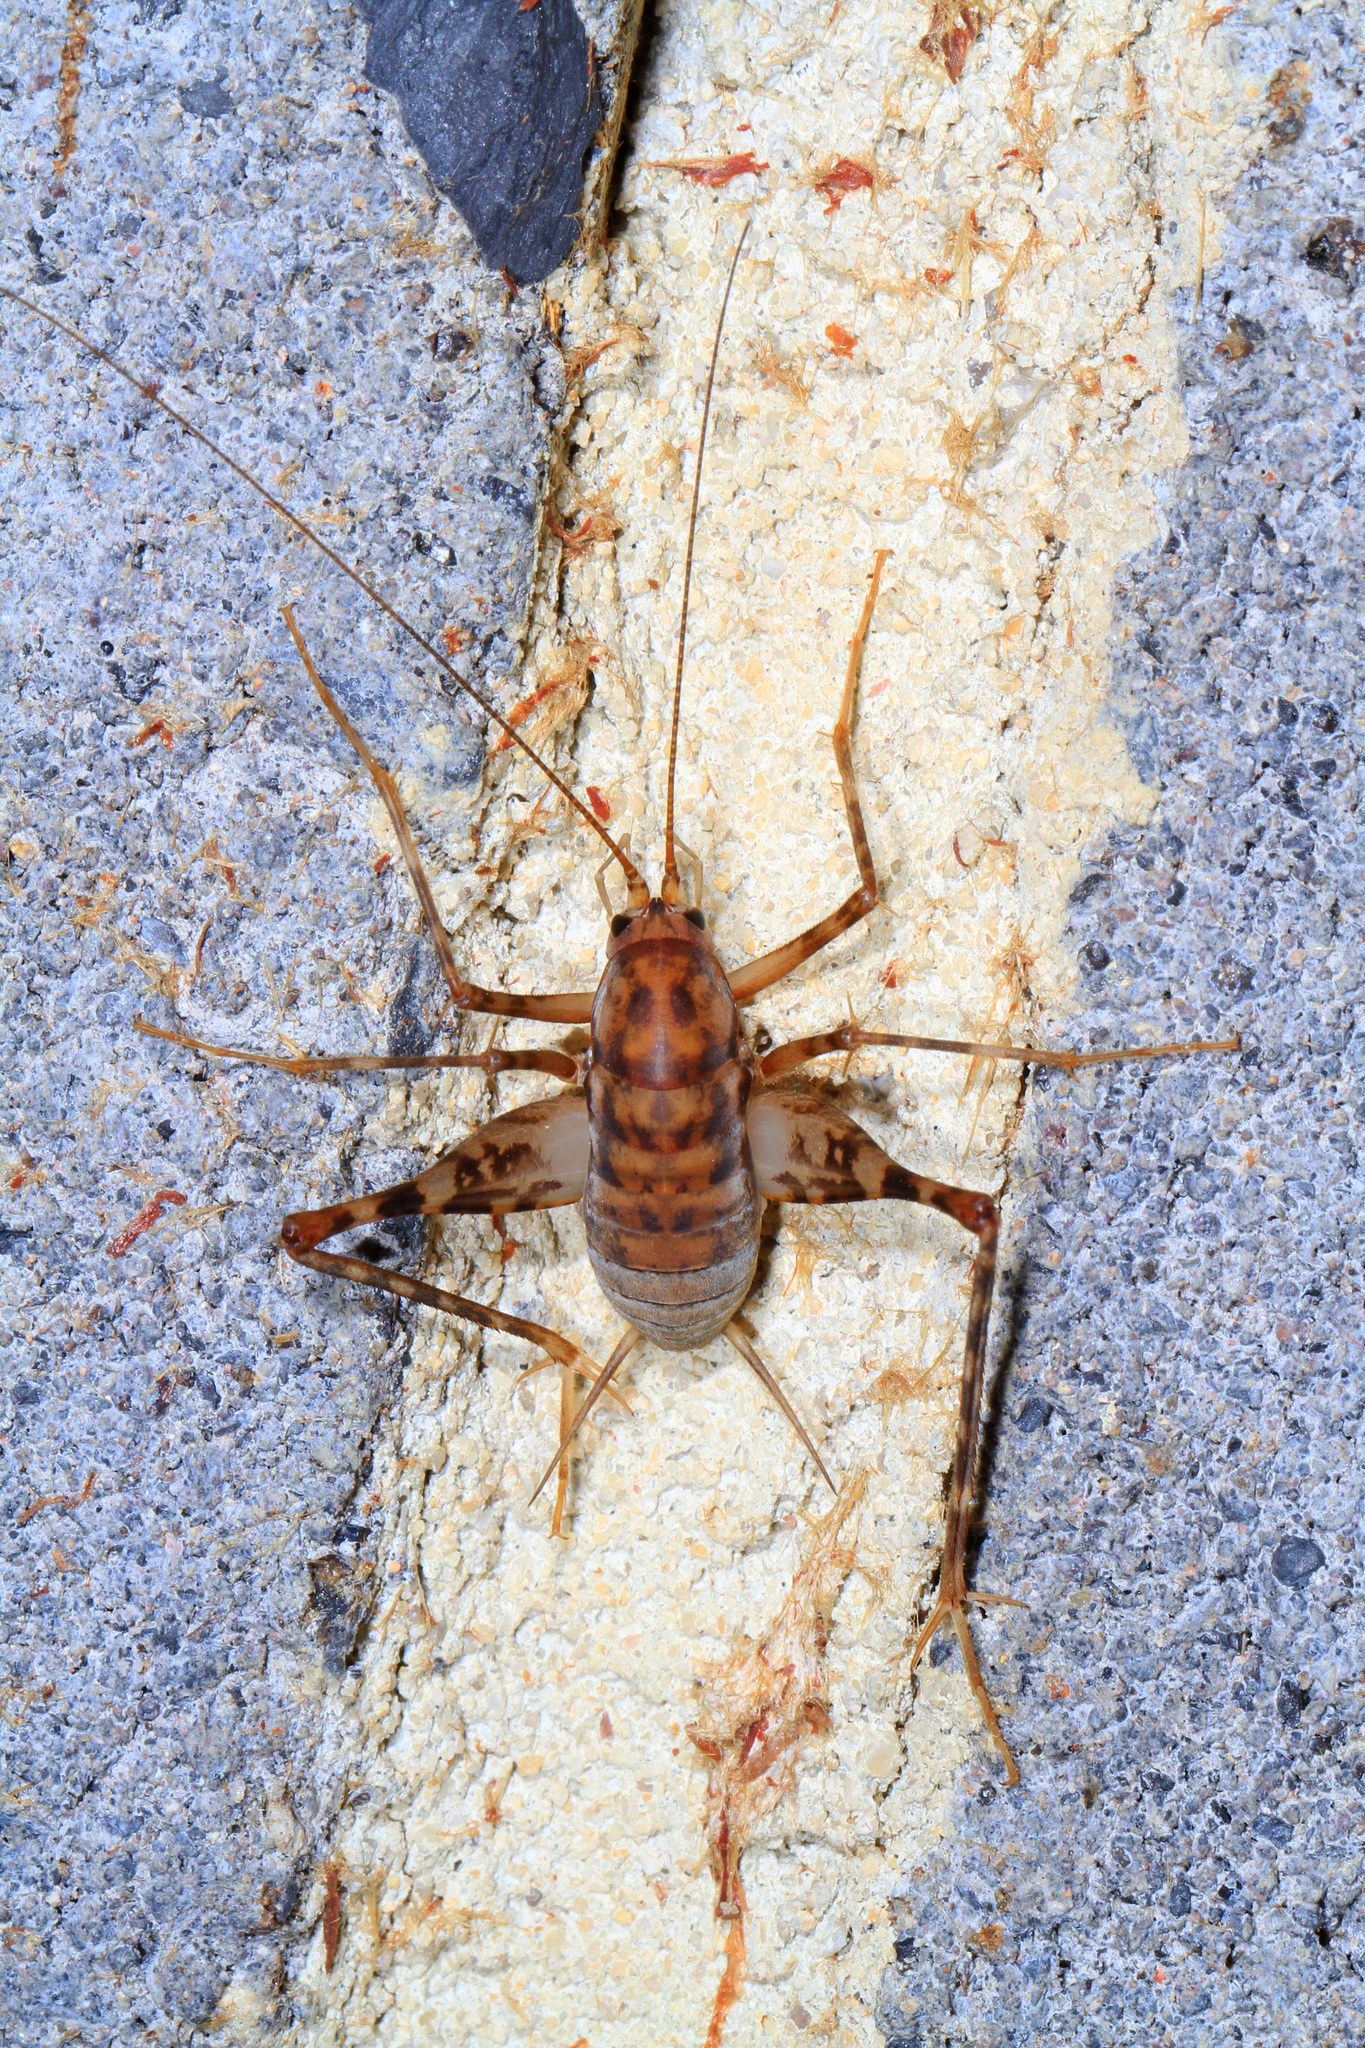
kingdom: Animalia
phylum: Arthropoda
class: Insecta
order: Orthoptera
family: Rhaphidophoridae
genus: Tachycines
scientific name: Tachycines asynamorus
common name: Greenhouse camel cricket
